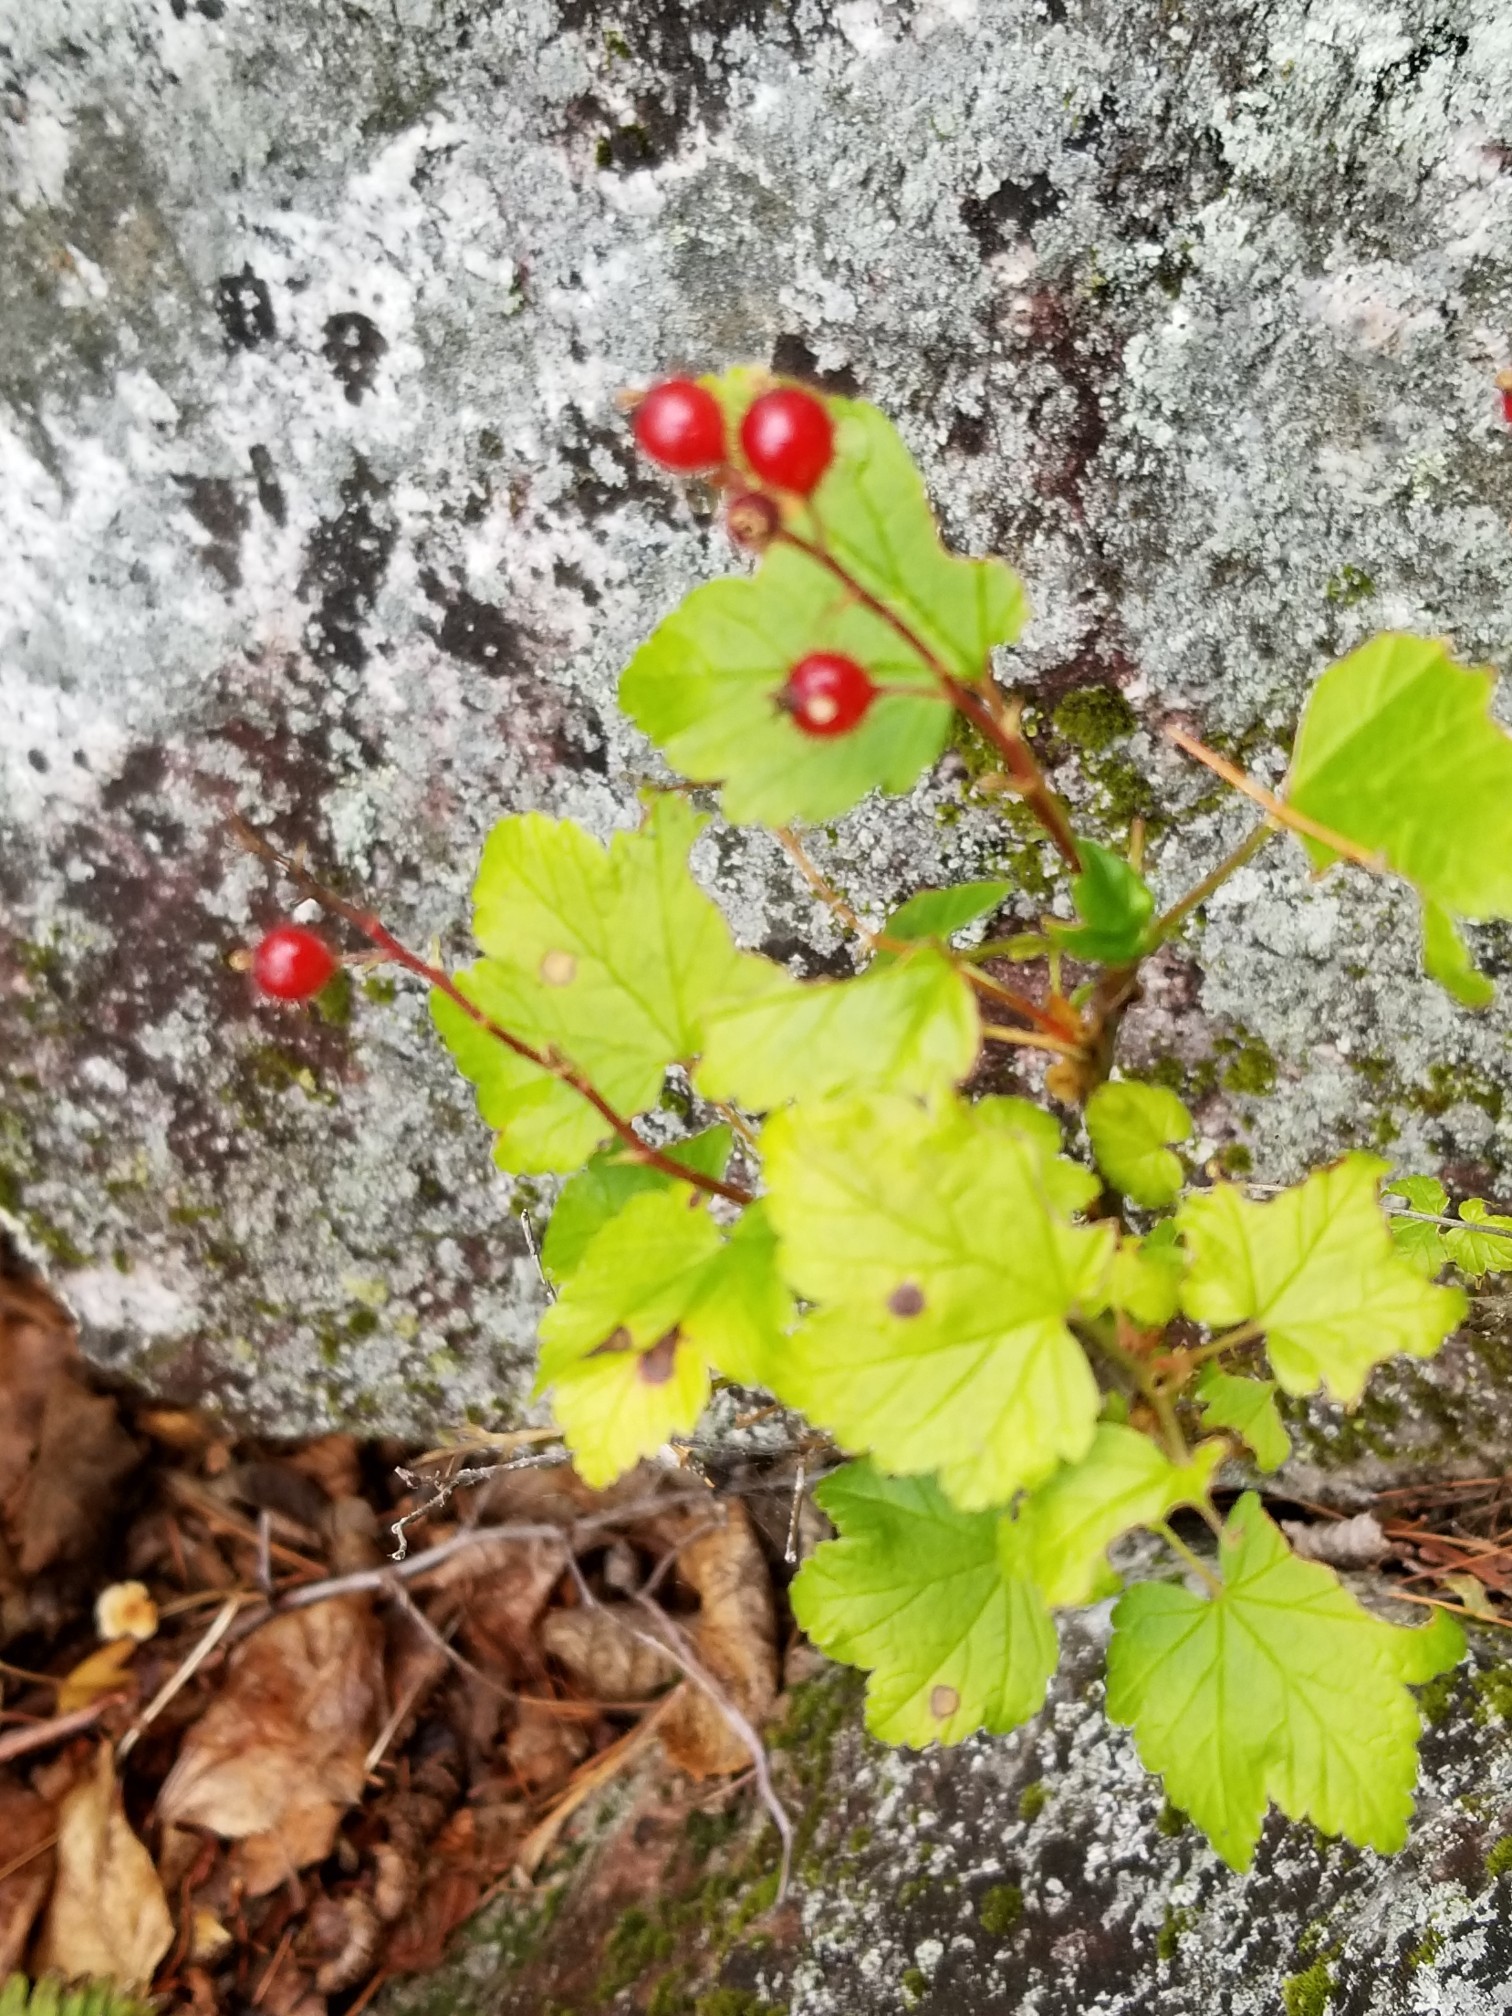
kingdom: Plantae
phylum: Tracheophyta
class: Magnoliopsida
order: Saxifragales
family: Grossulariaceae
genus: Ribes
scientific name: Ribes glandulosum
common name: Skunk currant
